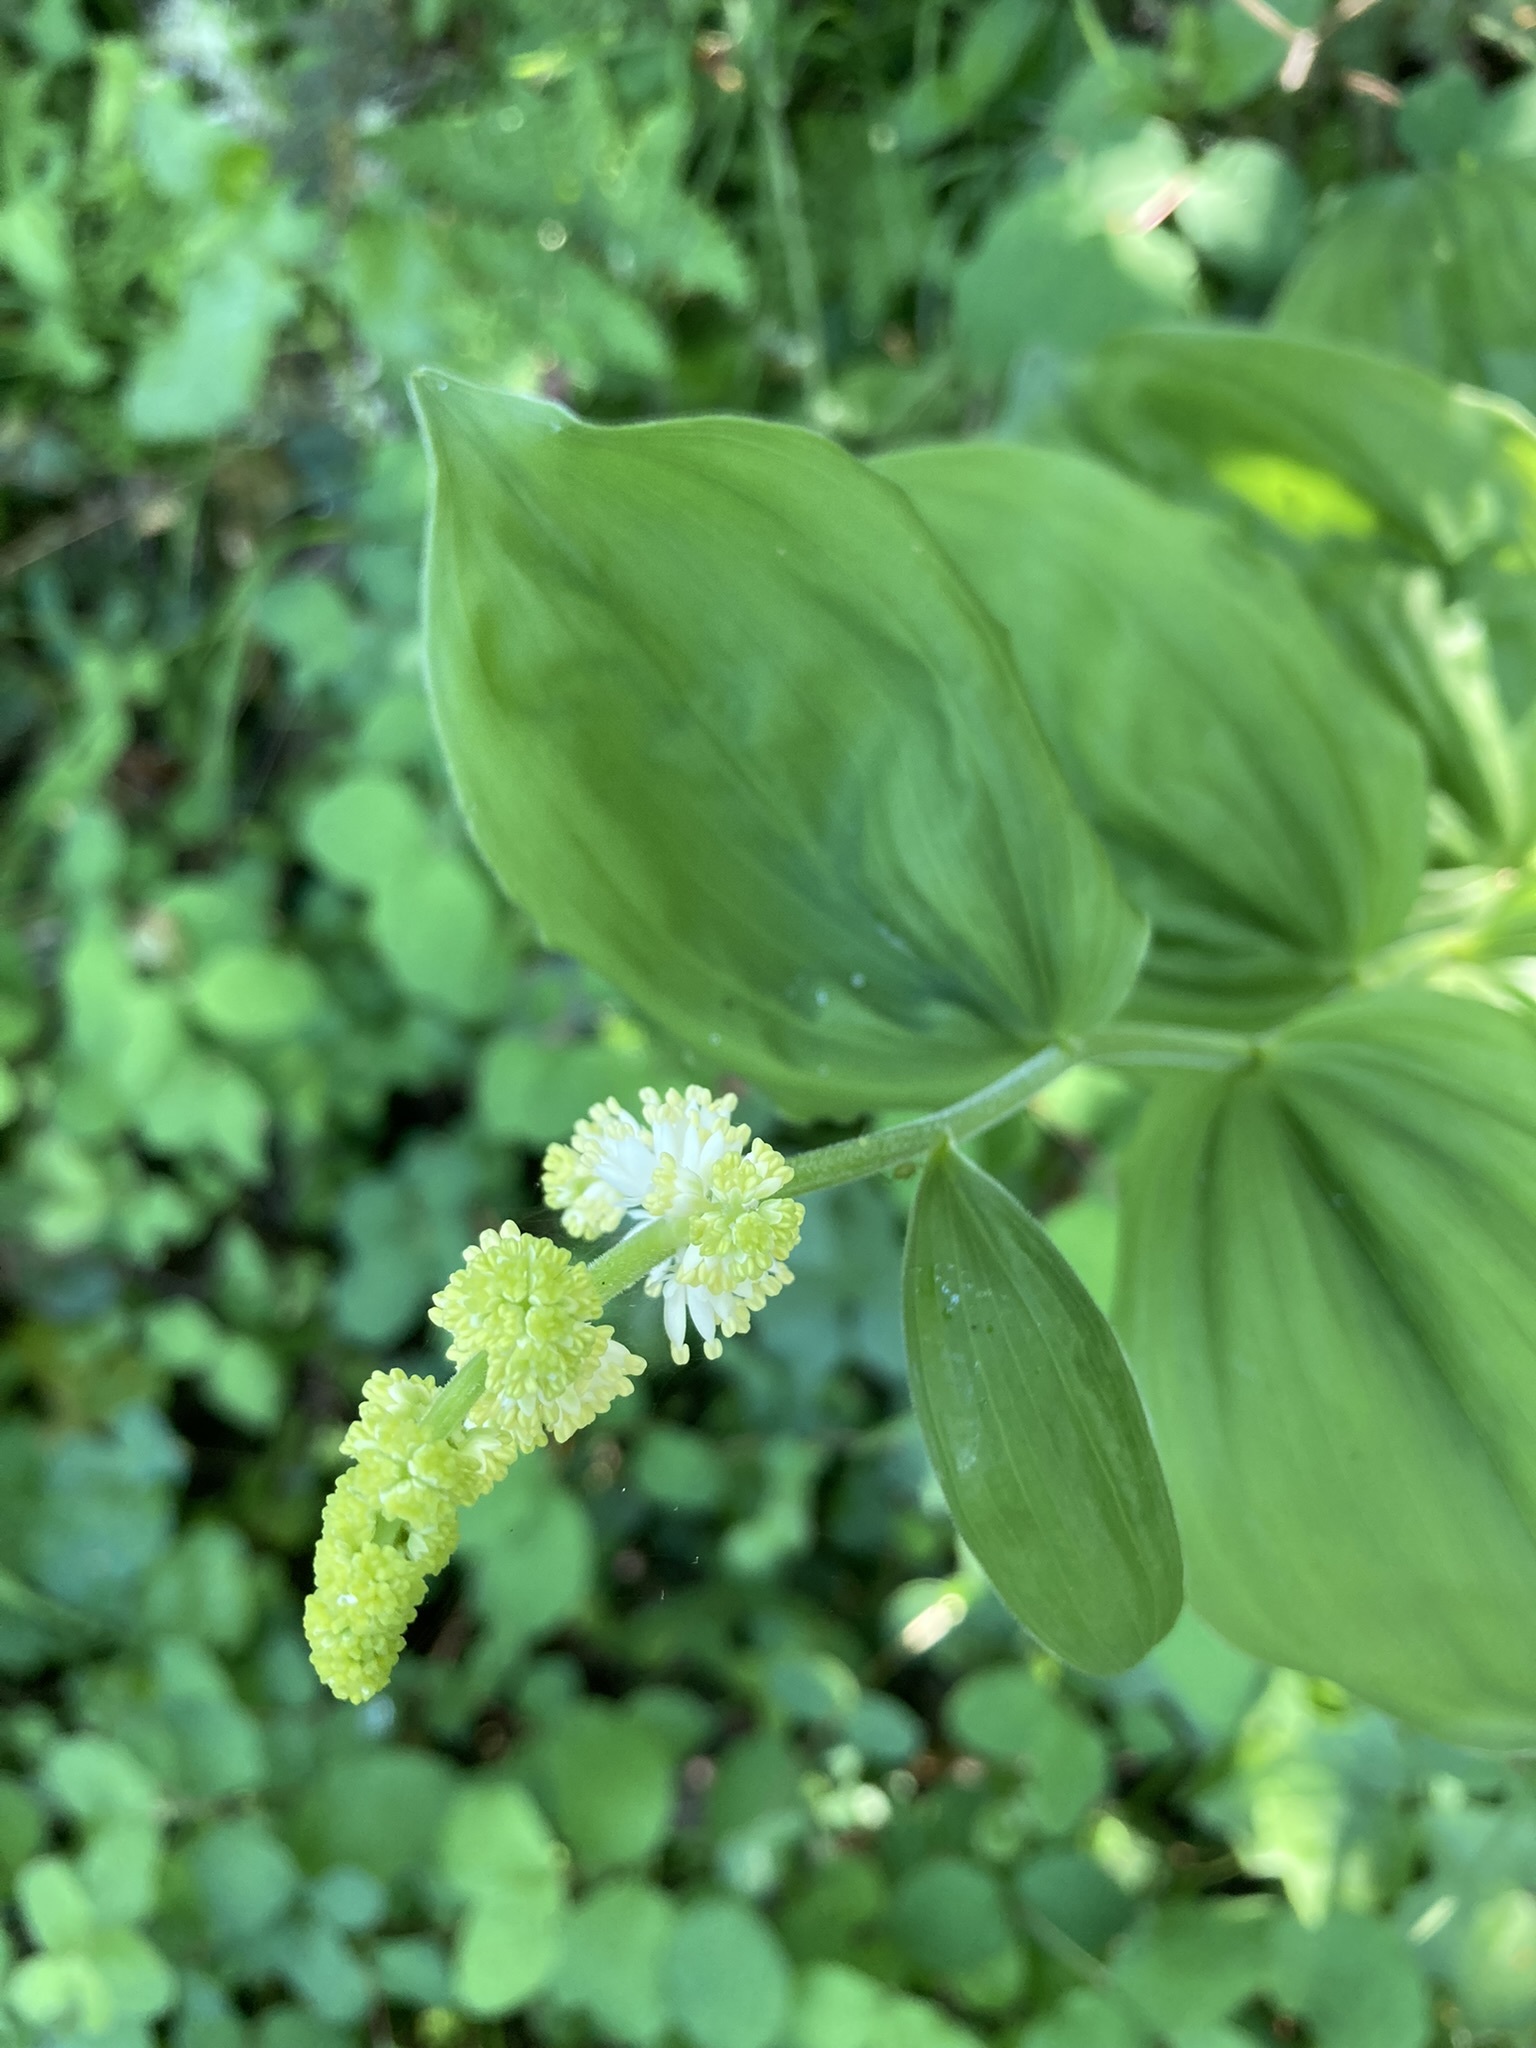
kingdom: Plantae
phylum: Tracheophyta
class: Liliopsida
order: Asparagales
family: Asparagaceae
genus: Maianthemum
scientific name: Maianthemum racemosum
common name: False spikenard
